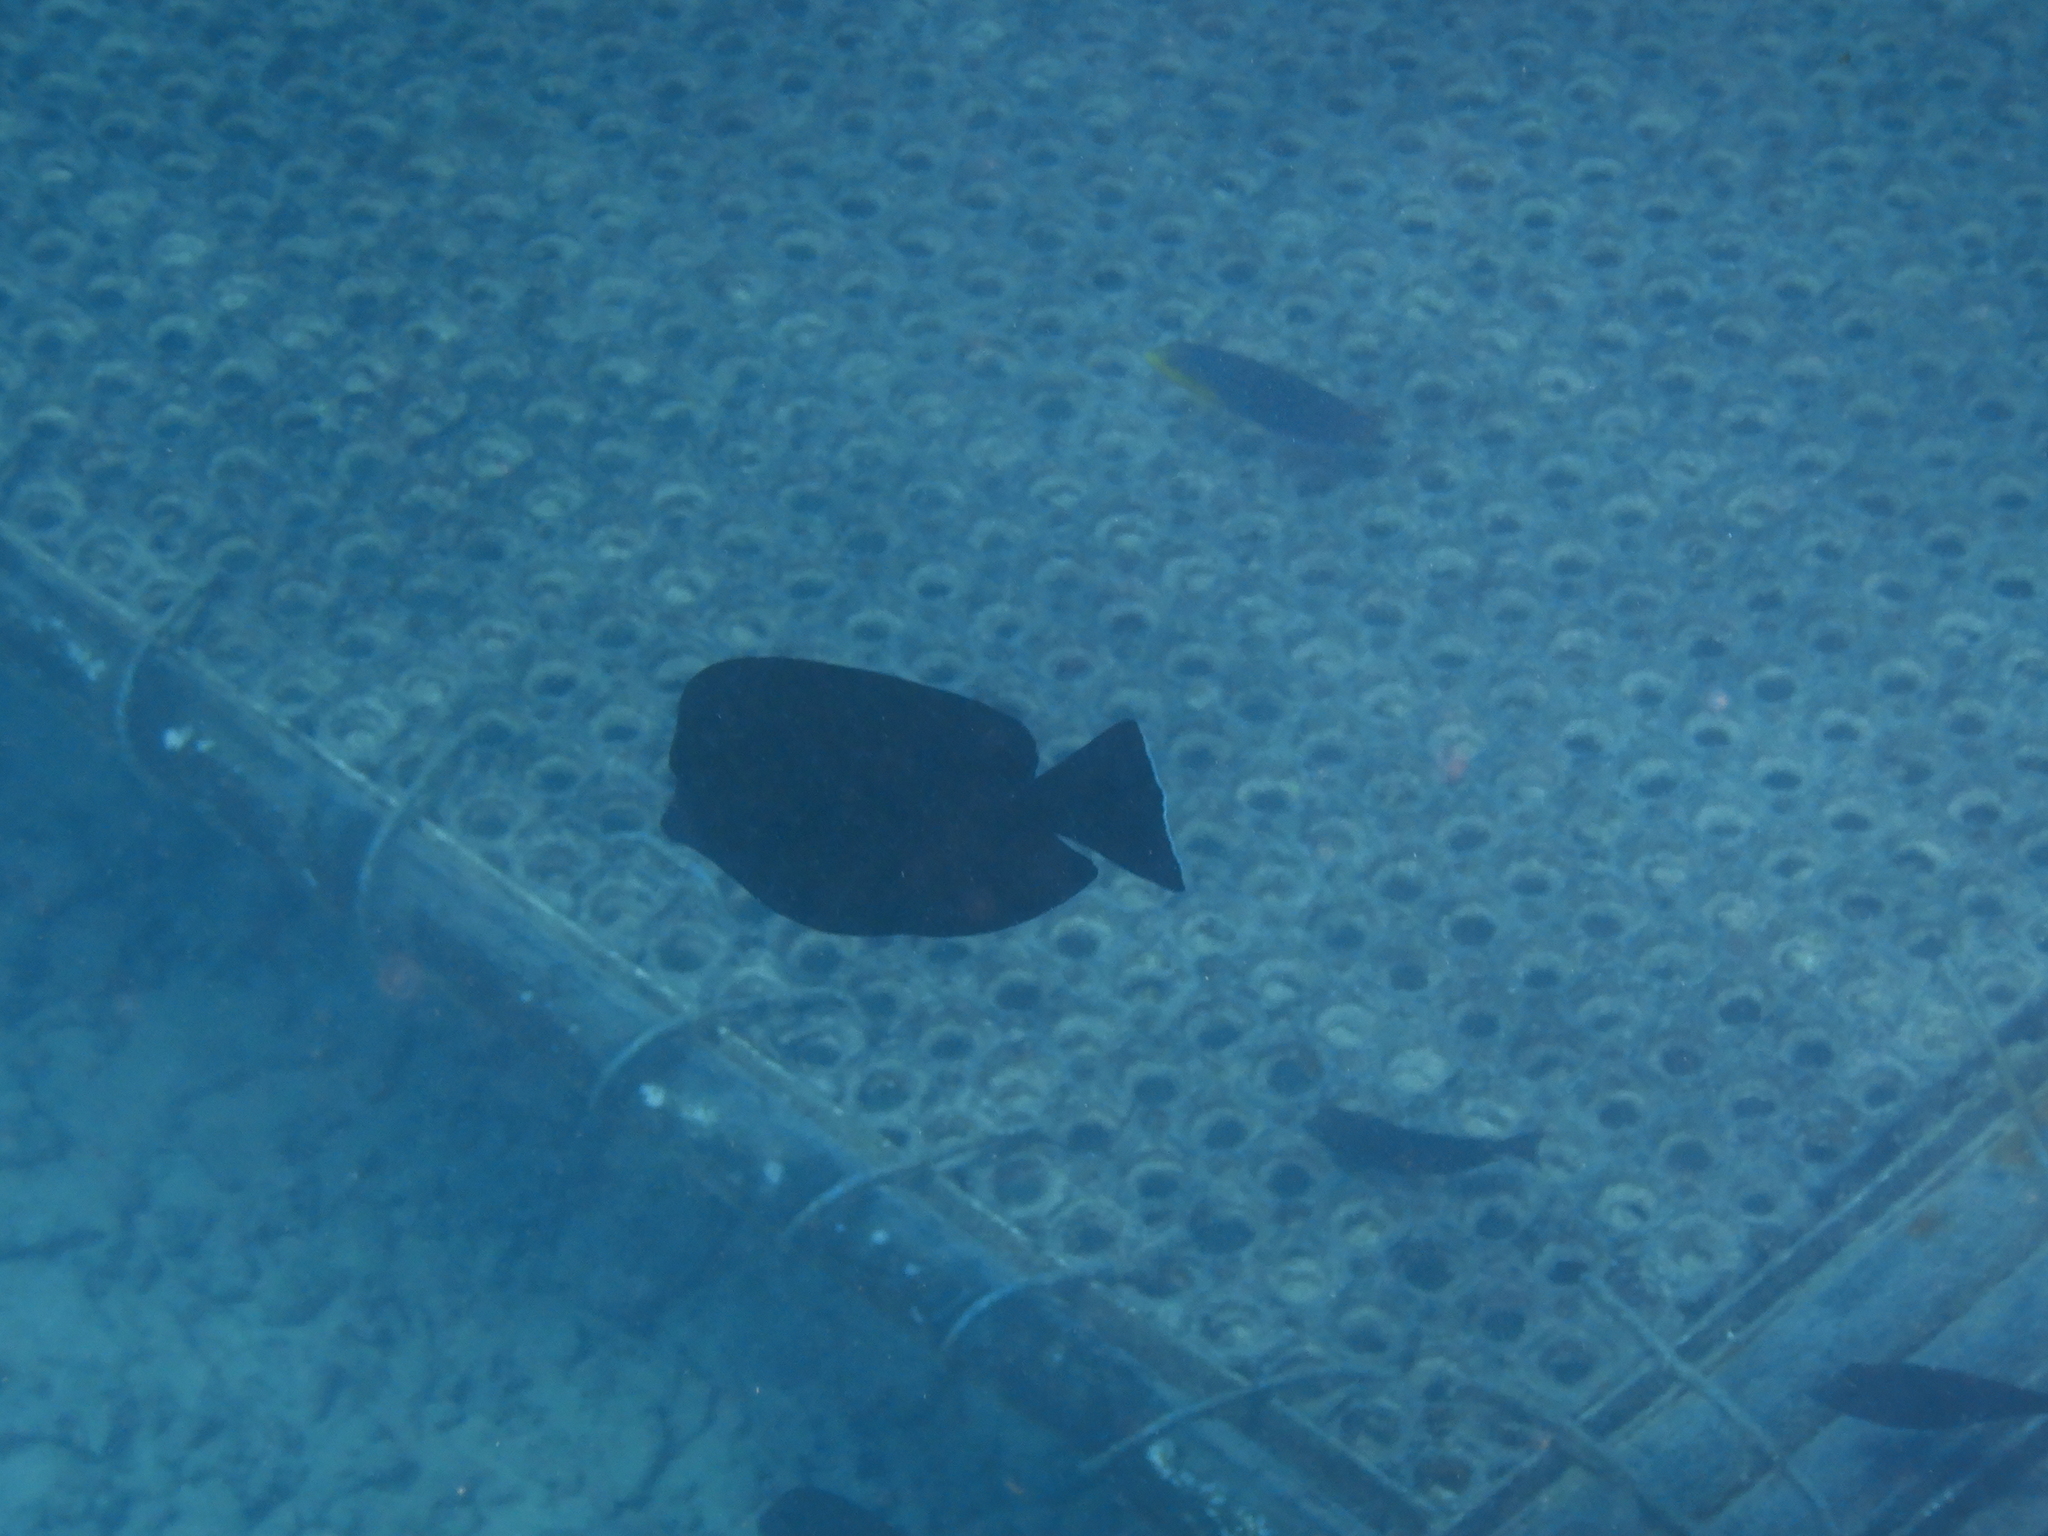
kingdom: Animalia
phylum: Chordata
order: Perciformes
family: Acanthuridae
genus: Zebrasoma
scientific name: Zebrasoma desjardinii
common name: Desjardin's sailfin tang
